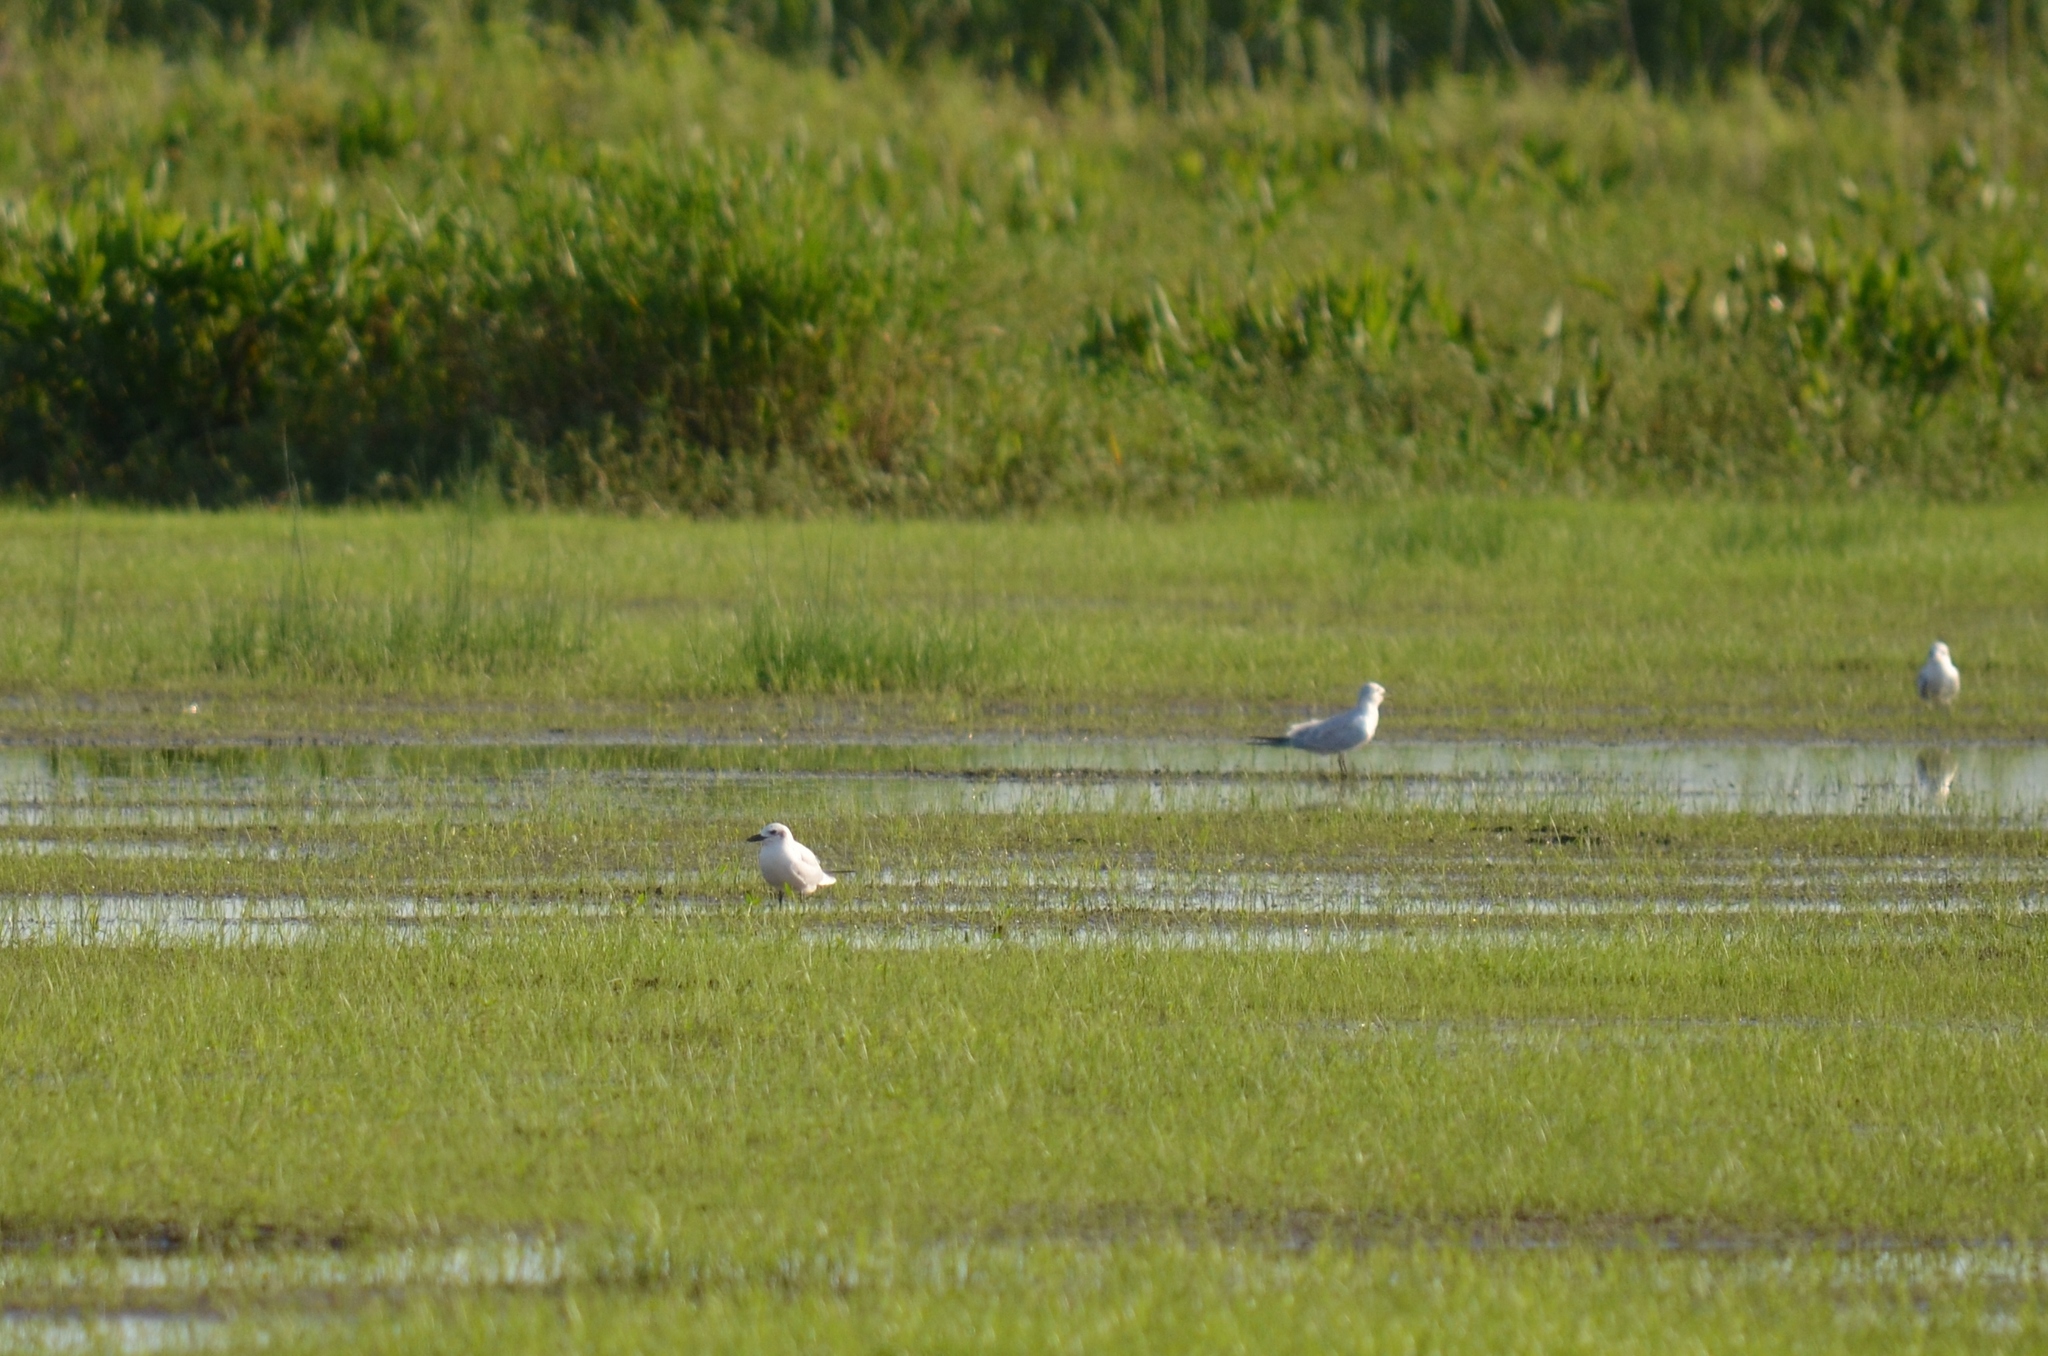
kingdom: Animalia
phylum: Chordata
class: Aves
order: Charadriiformes
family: Laridae
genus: Gelochelidon
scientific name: Gelochelidon nilotica
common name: Gull-billed tern
